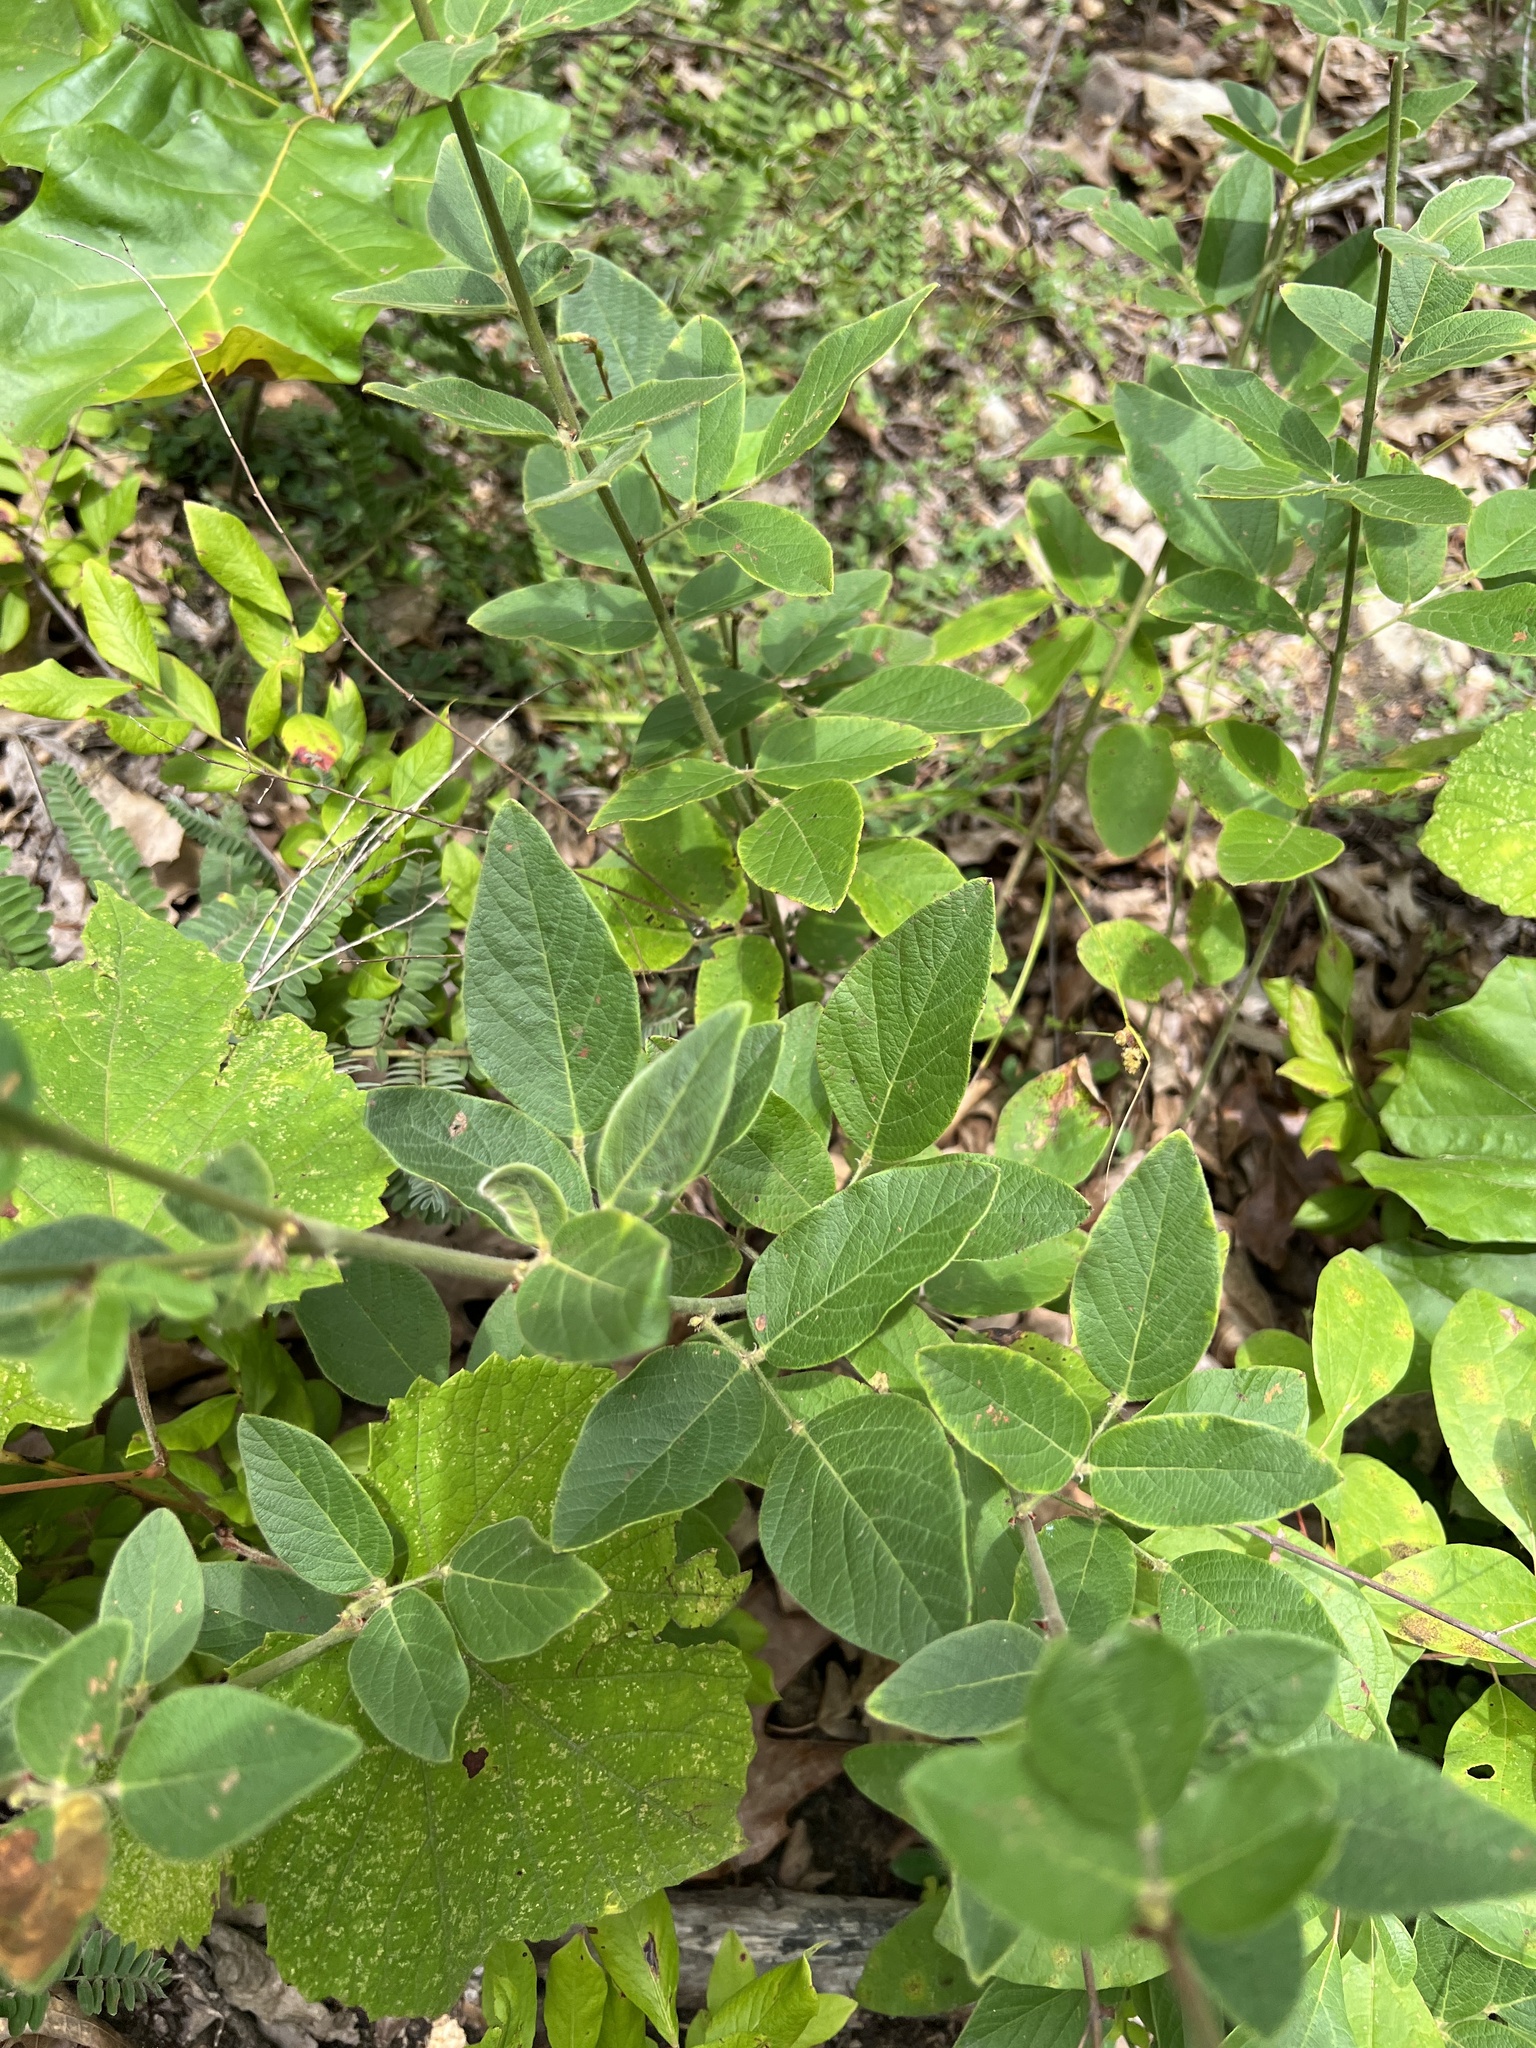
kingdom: Plantae
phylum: Tracheophyta
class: Magnoliopsida
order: Fabales
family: Fabaceae
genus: Desmodium
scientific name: Desmodium nuttallii
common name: Nuttall's tick trefoil
